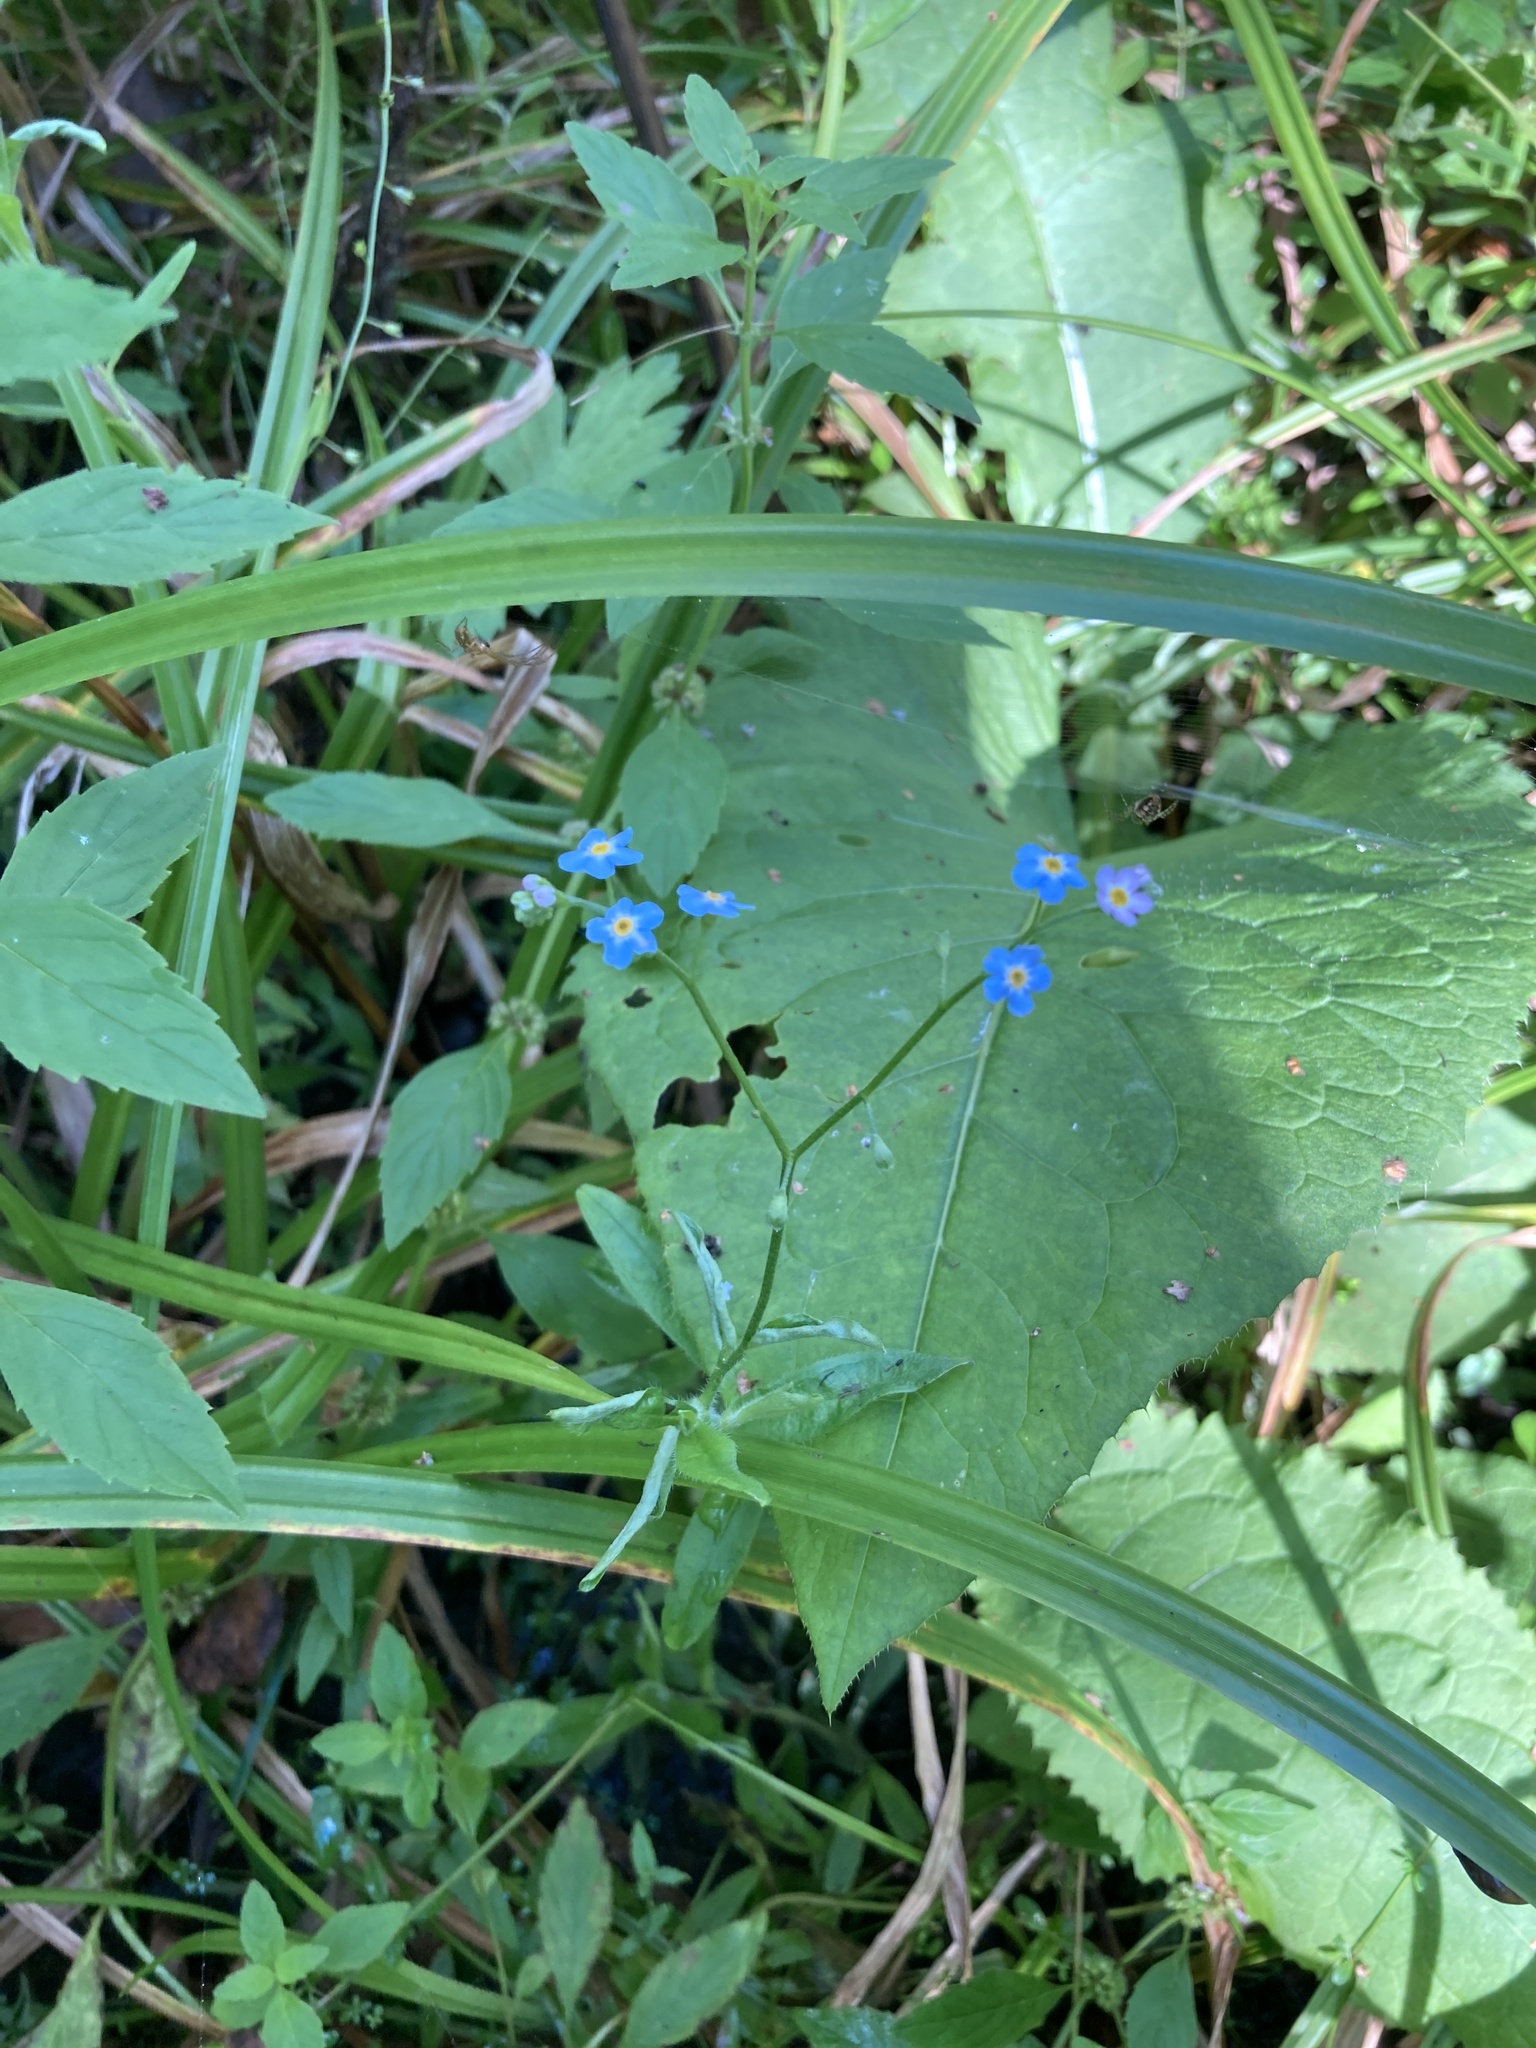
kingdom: Plantae
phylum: Tracheophyta
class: Magnoliopsida
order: Boraginales
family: Boraginaceae
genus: Myosotis
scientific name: Myosotis scorpioides
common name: Water forget-me-not
